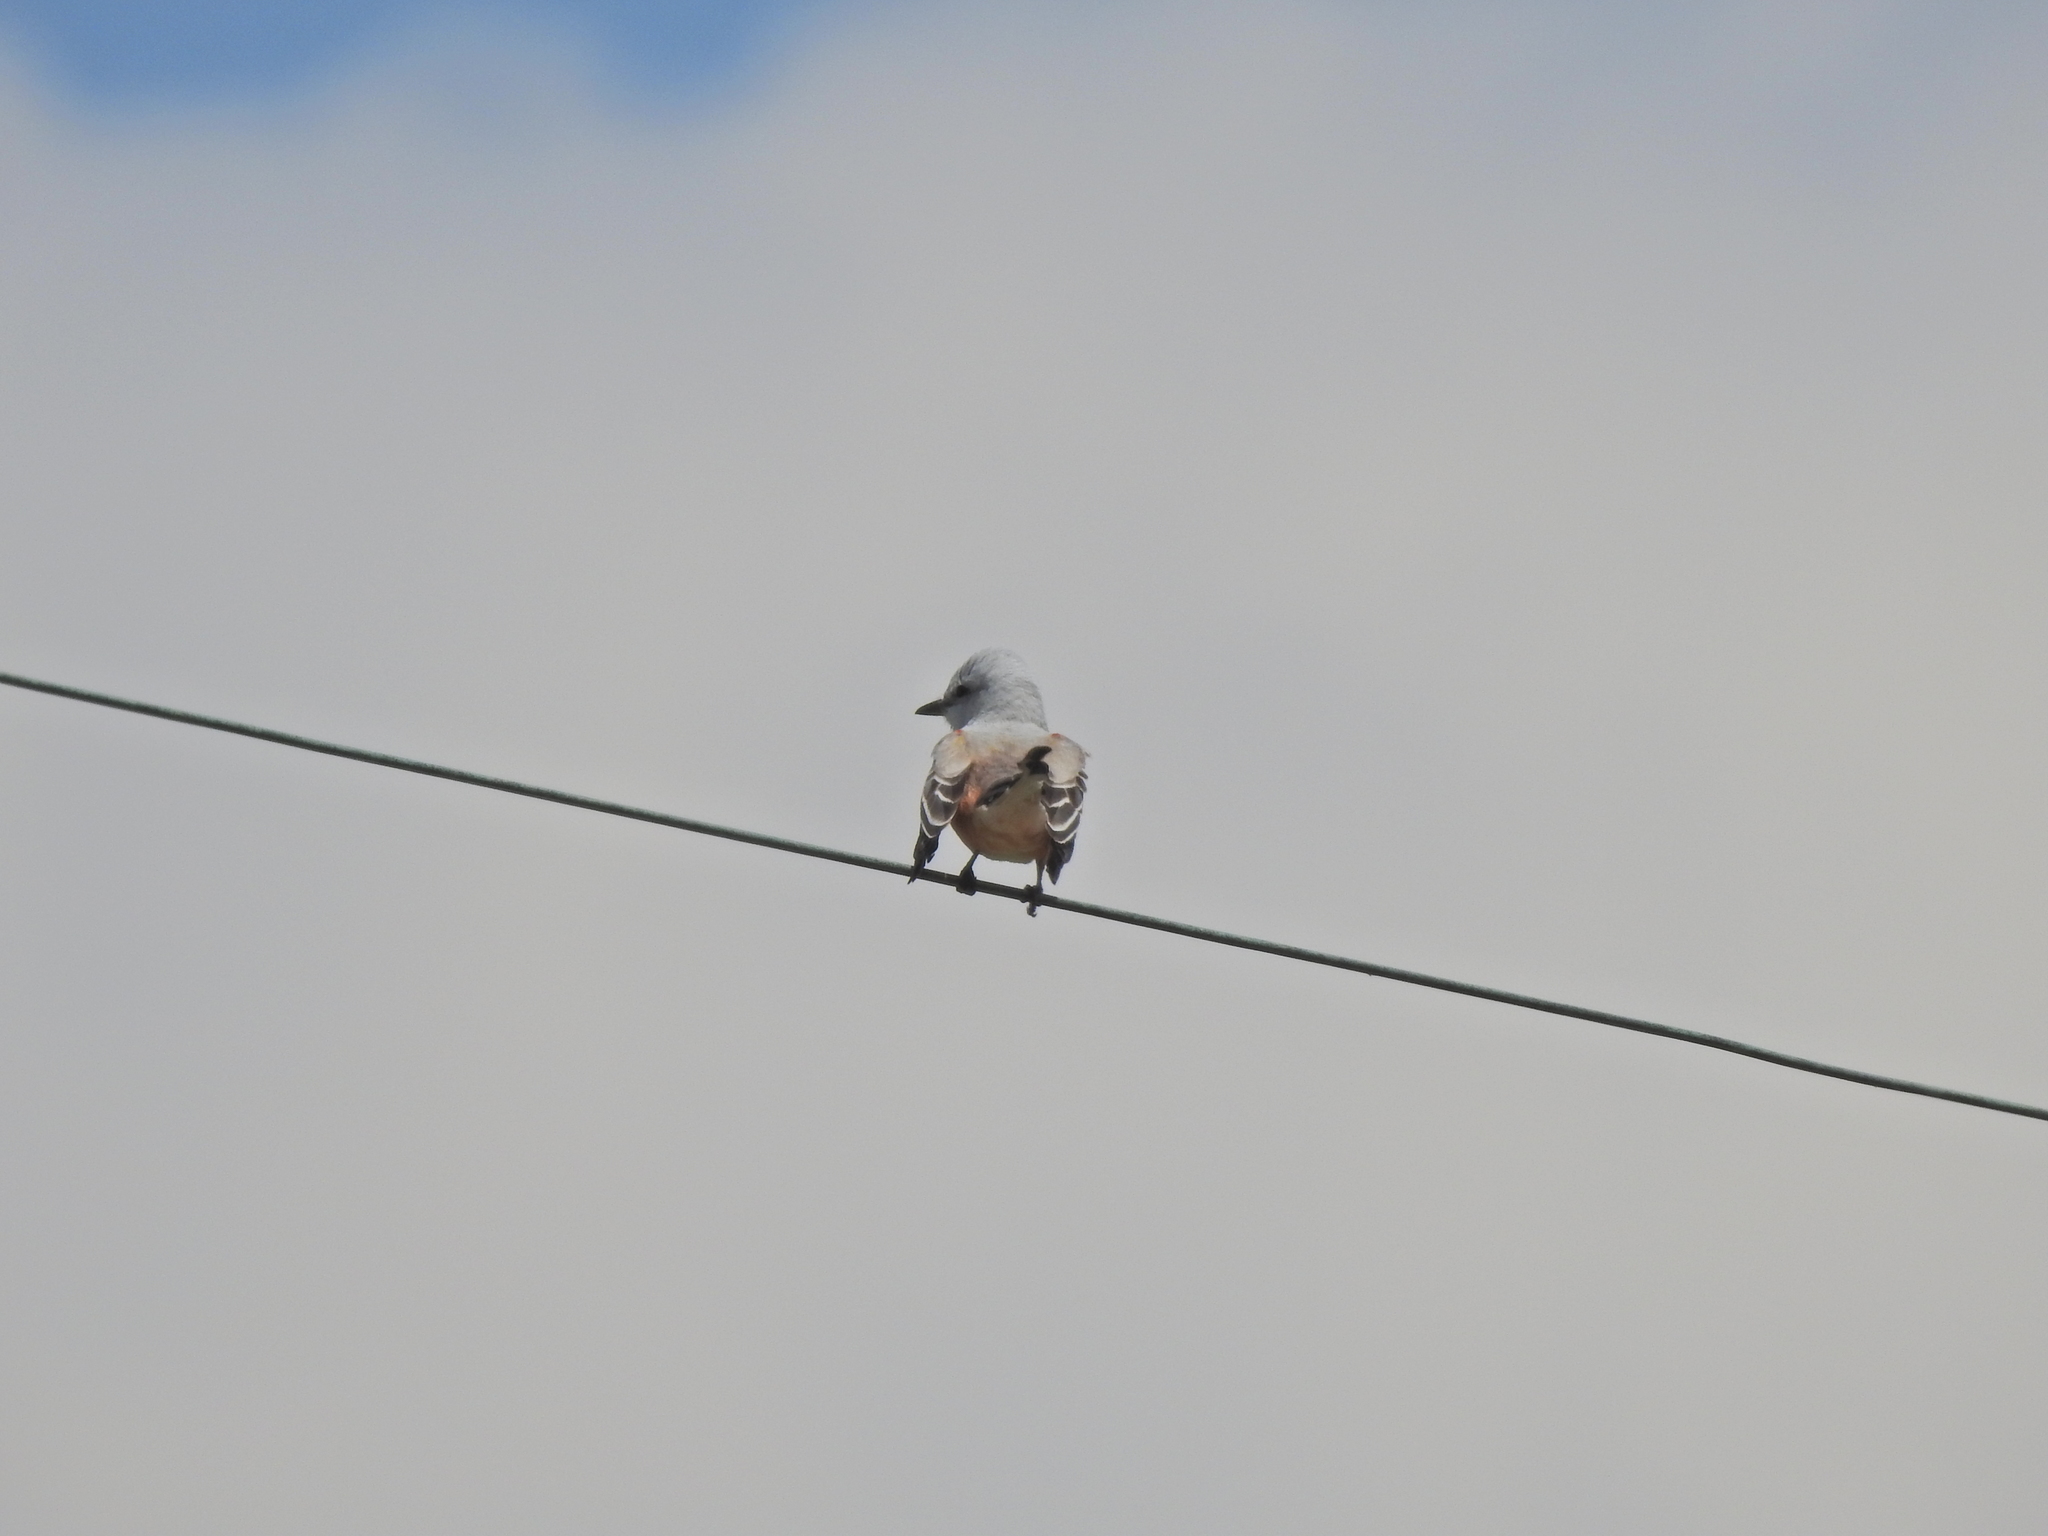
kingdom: Animalia
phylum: Chordata
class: Aves
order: Passeriformes
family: Tyrannidae
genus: Tyrannus
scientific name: Tyrannus forficatus
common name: Scissor-tailed flycatcher
